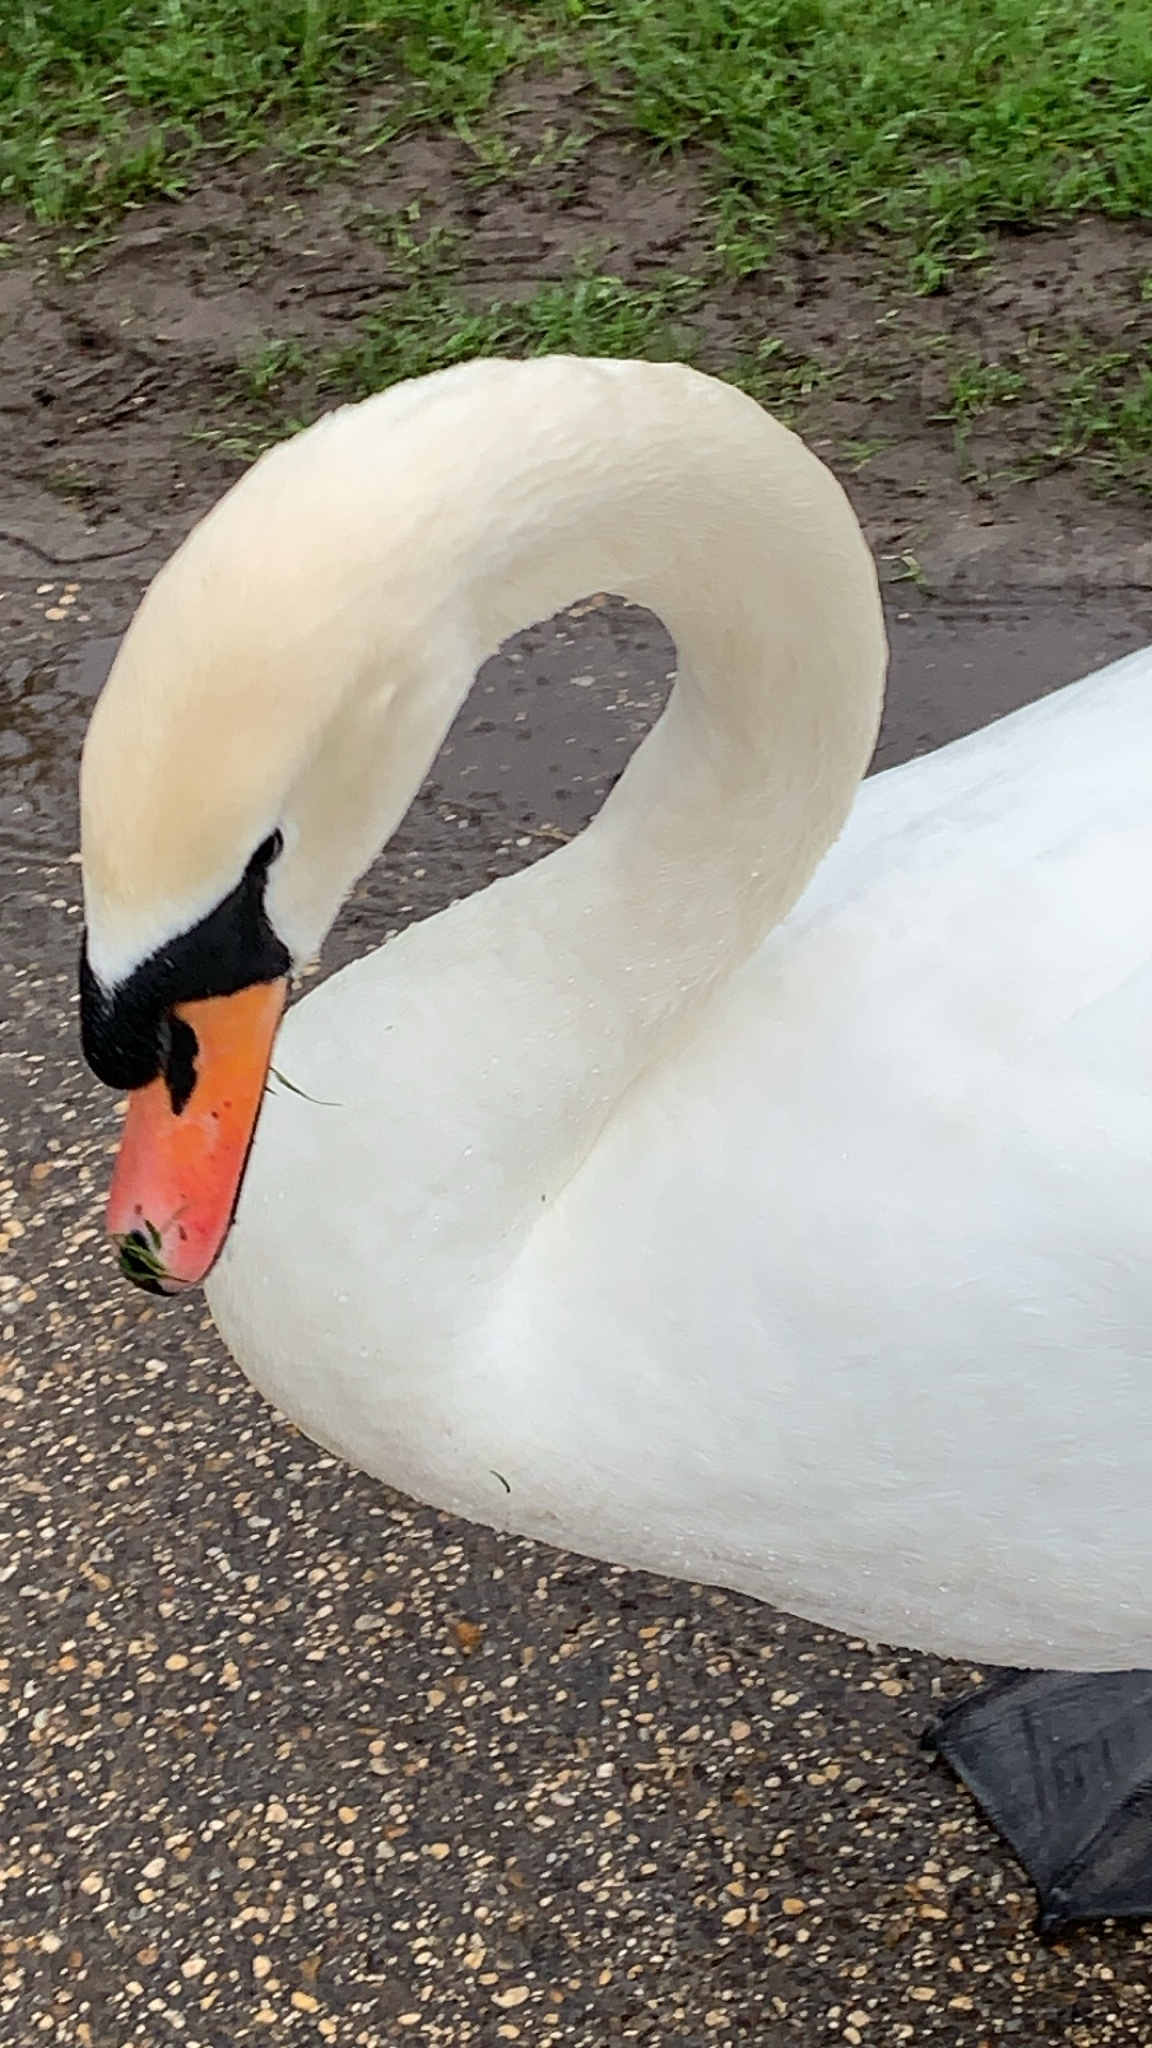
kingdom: Animalia
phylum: Chordata
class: Aves
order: Anseriformes
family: Anatidae
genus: Cygnus
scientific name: Cygnus olor
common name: Mute swan
